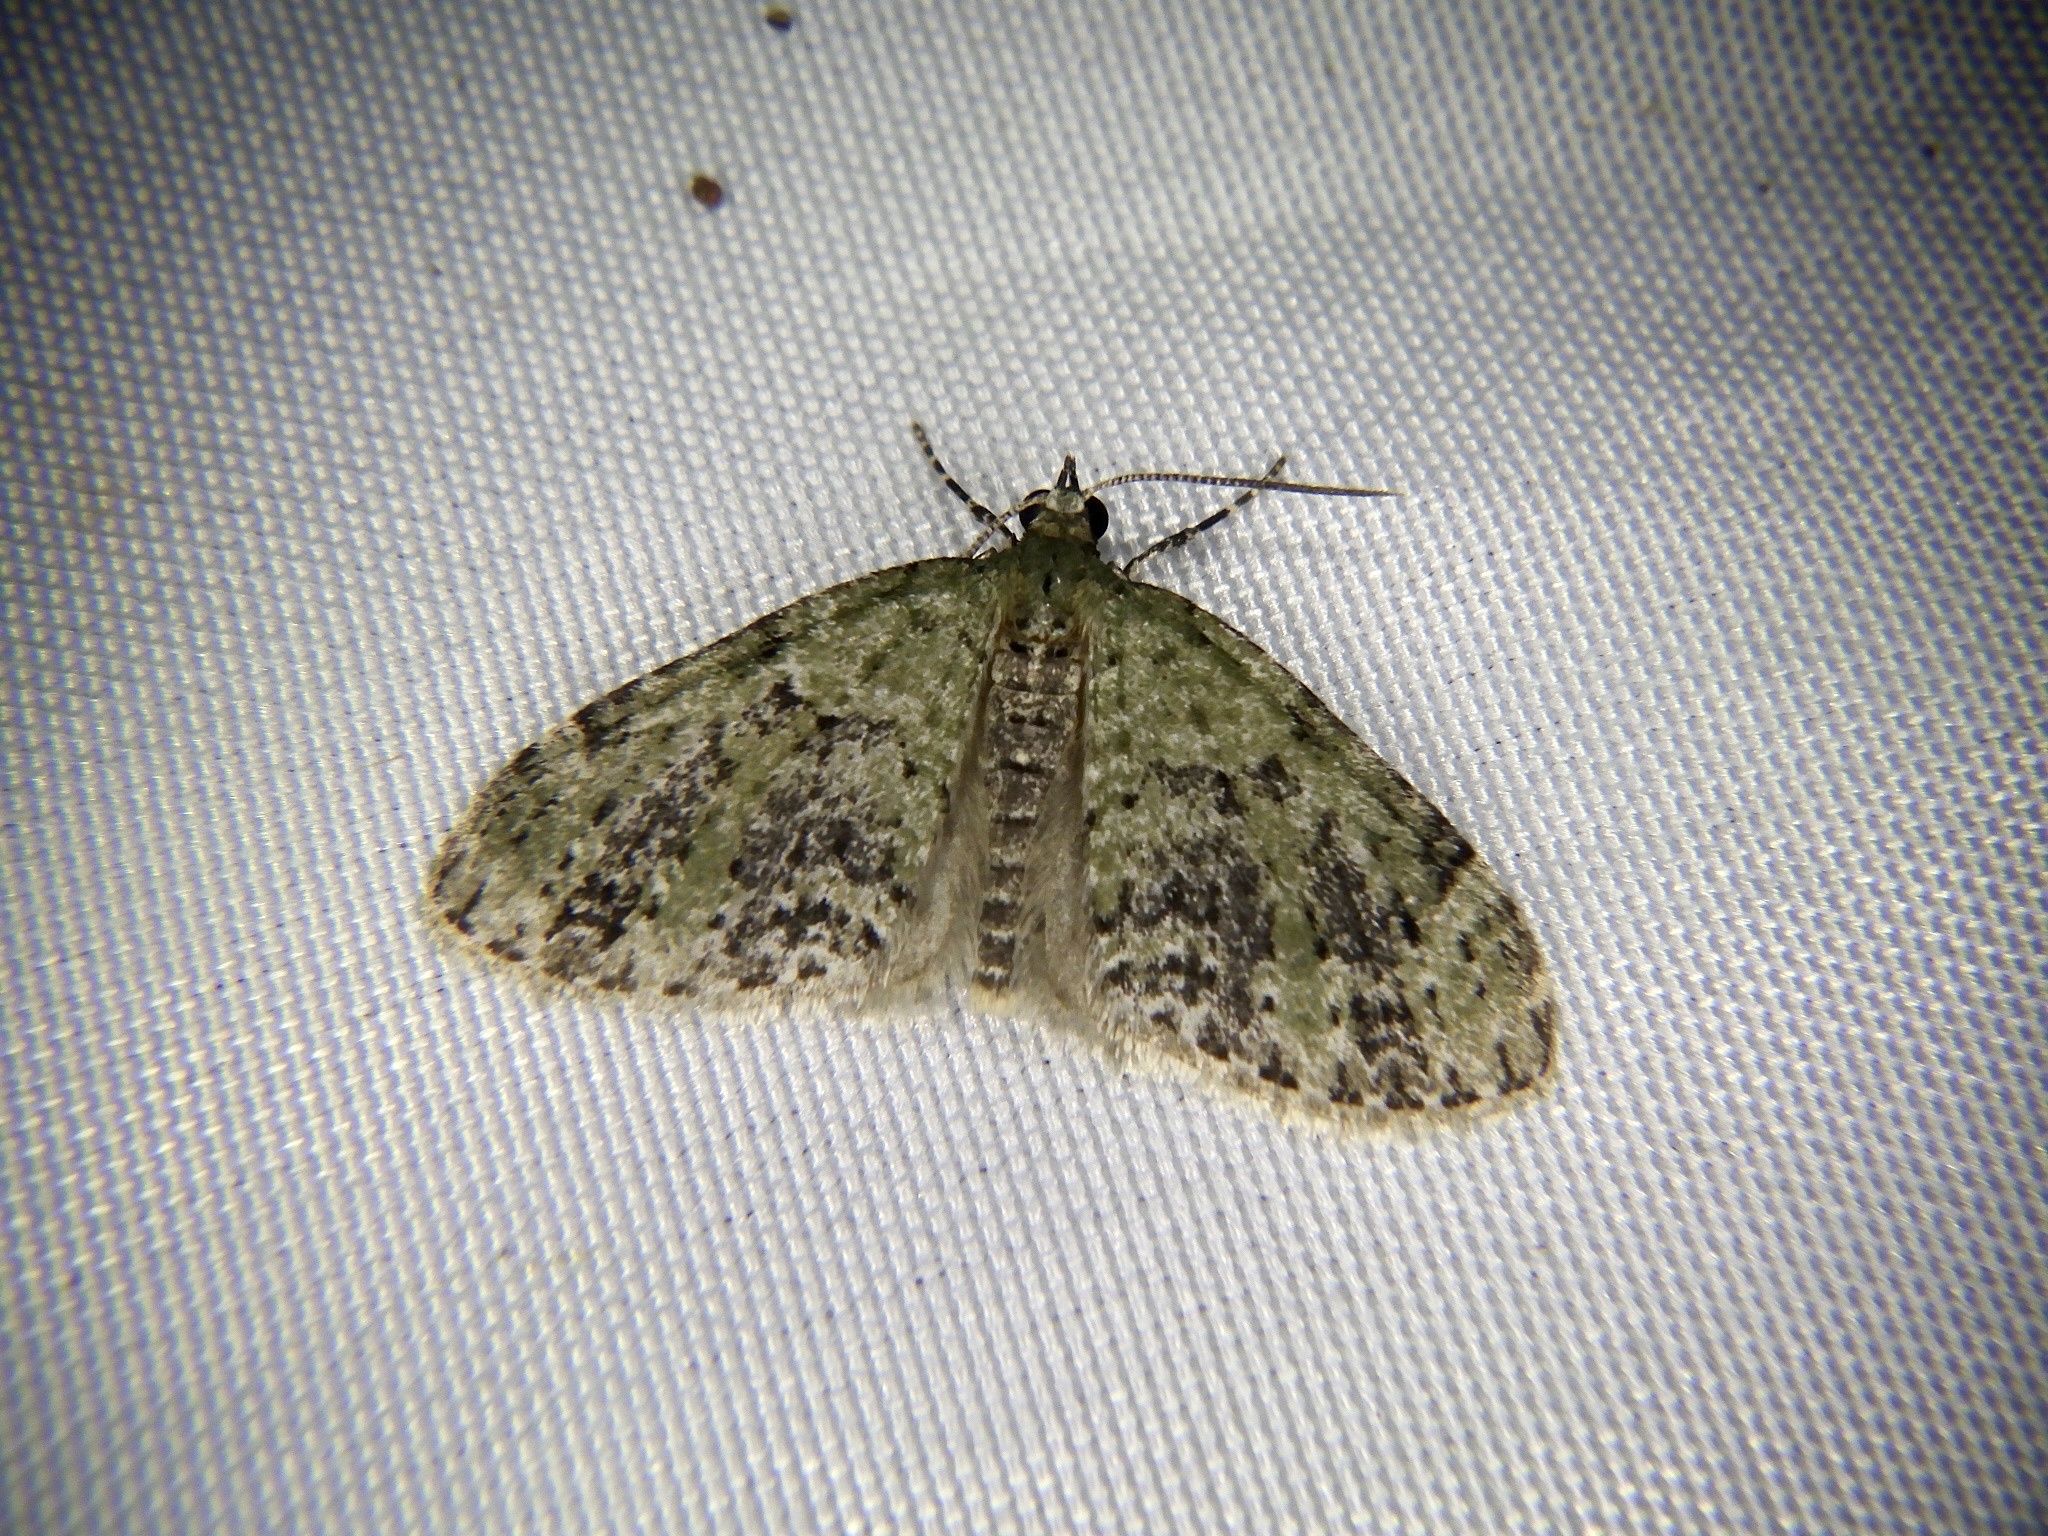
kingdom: Animalia
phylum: Arthropoda
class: Insecta
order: Lepidoptera
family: Geometridae
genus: Acasis
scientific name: Acasis viretata
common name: Yellow-barred brindle
